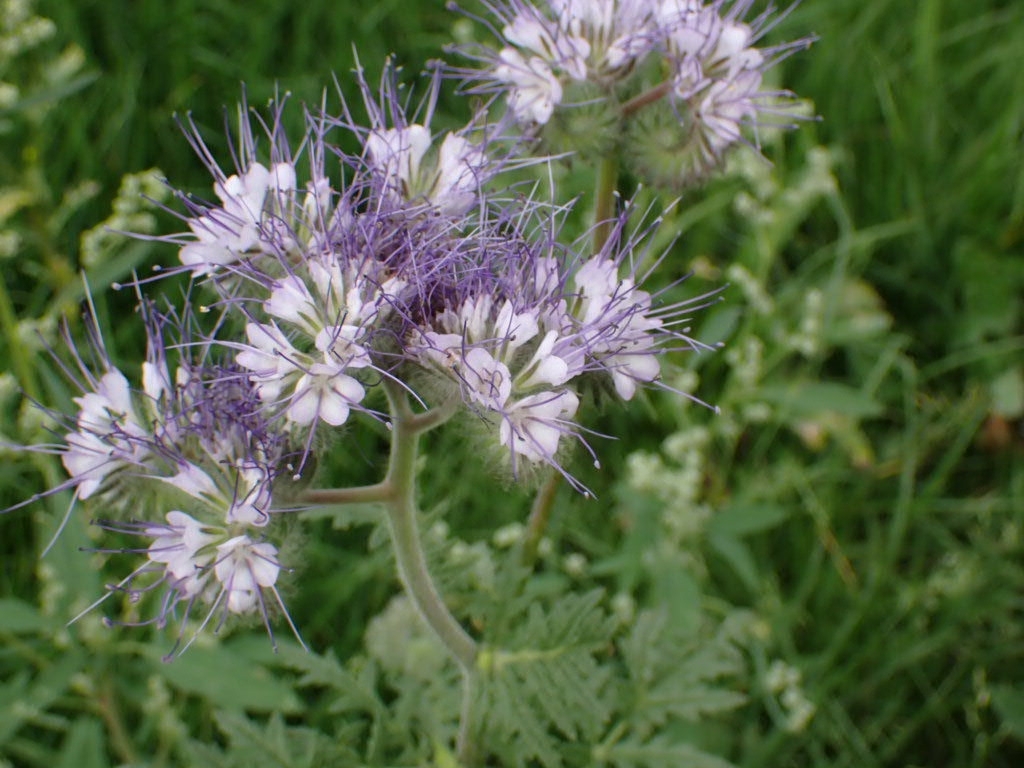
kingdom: Plantae
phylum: Tracheophyta
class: Magnoliopsida
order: Boraginales
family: Hydrophyllaceae
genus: Phacelia
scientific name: Phacelia tanacetifolia
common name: Phacelia
